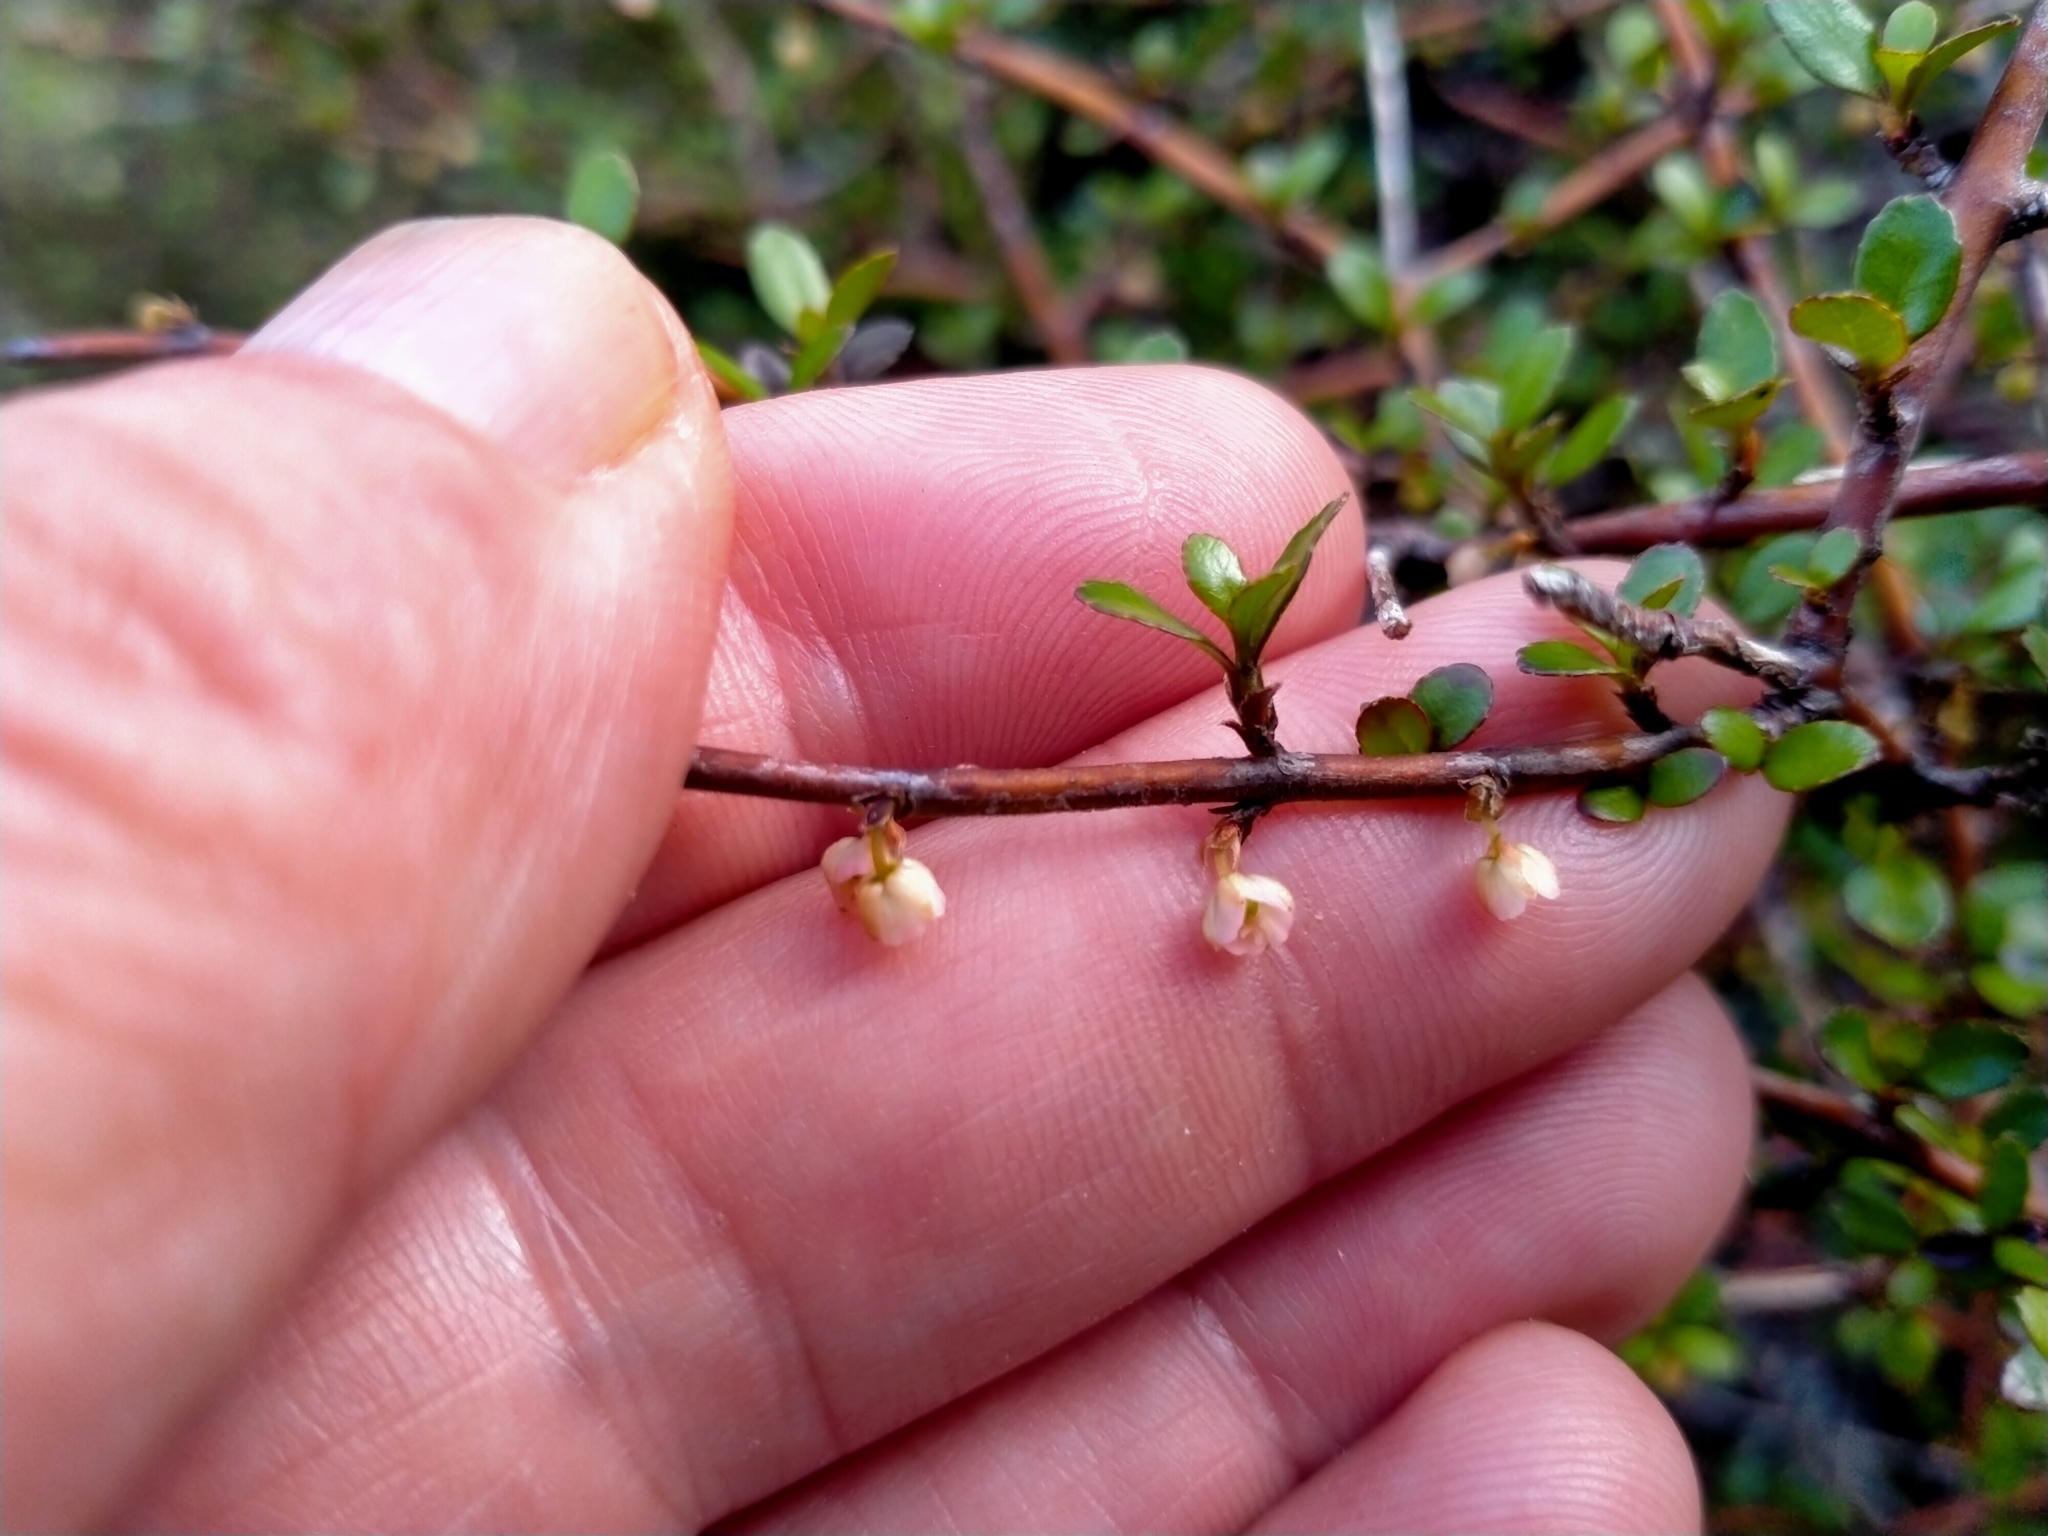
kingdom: Plantae
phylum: Tracheophyta
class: Magnoliopsida
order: Oxalidales
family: Elaeocarpaceae
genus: Aristotelia
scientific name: Aristotelia fruticosa
